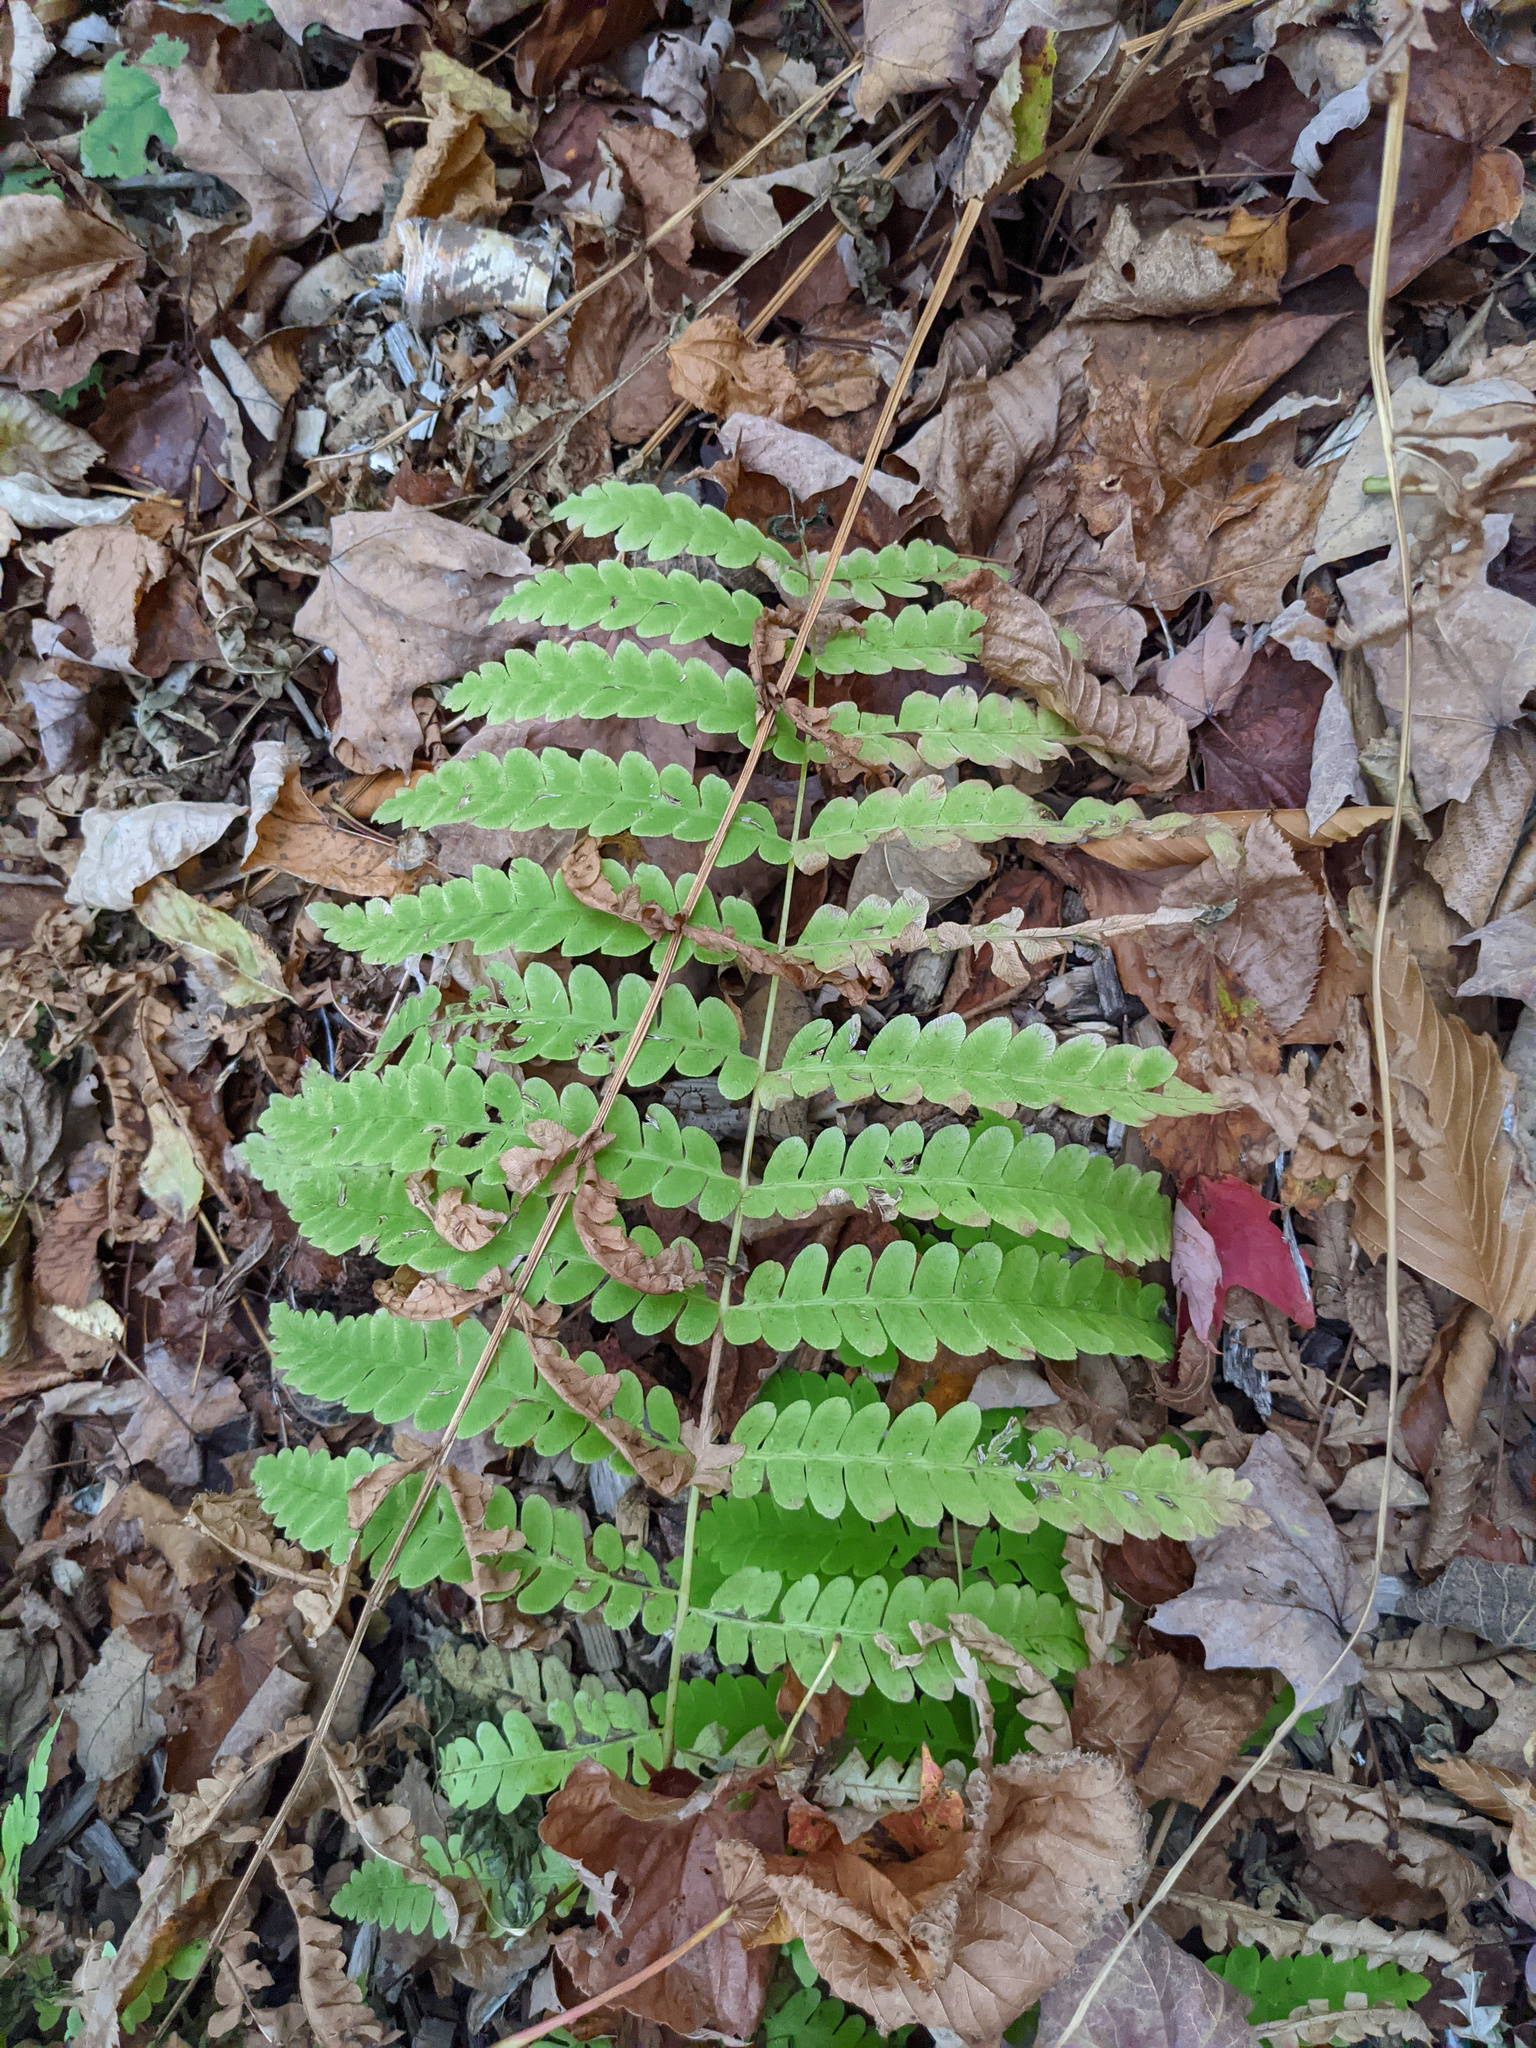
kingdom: Plantae
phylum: Tracheophyta
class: Polypodiopsida
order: Osmundales
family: Osmundaceae
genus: Claytosmunda
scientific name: Claytosmunda claytoniana
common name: Clayton's fern
